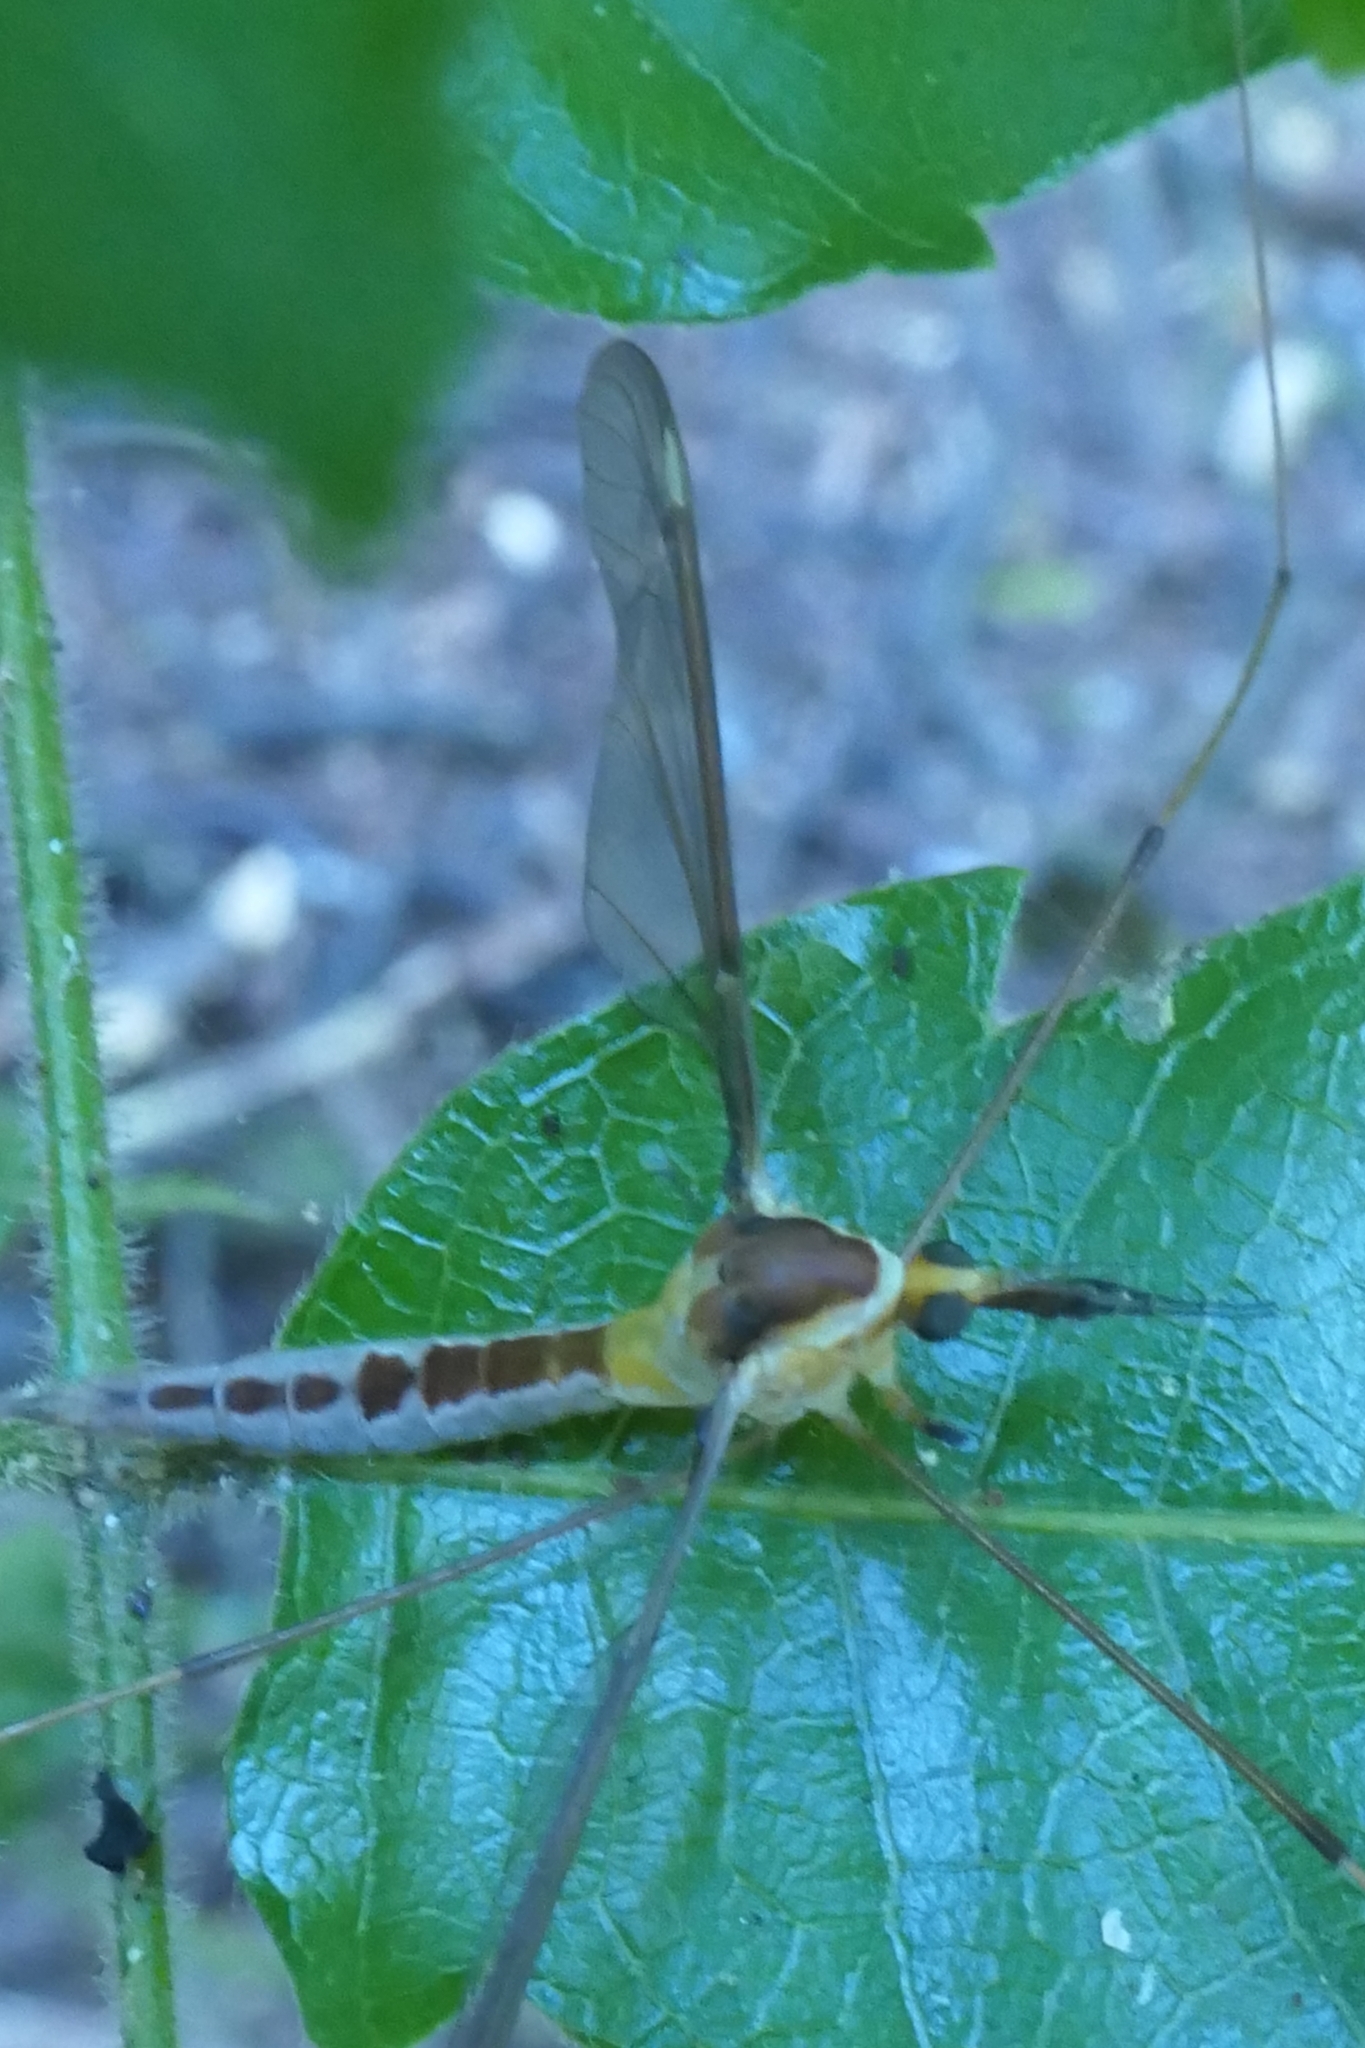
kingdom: Animalia
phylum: Arthropoda
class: Insecta
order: Diptera
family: Tipulidae
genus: Leptotarsus
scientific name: Leptotarsus albistigma
